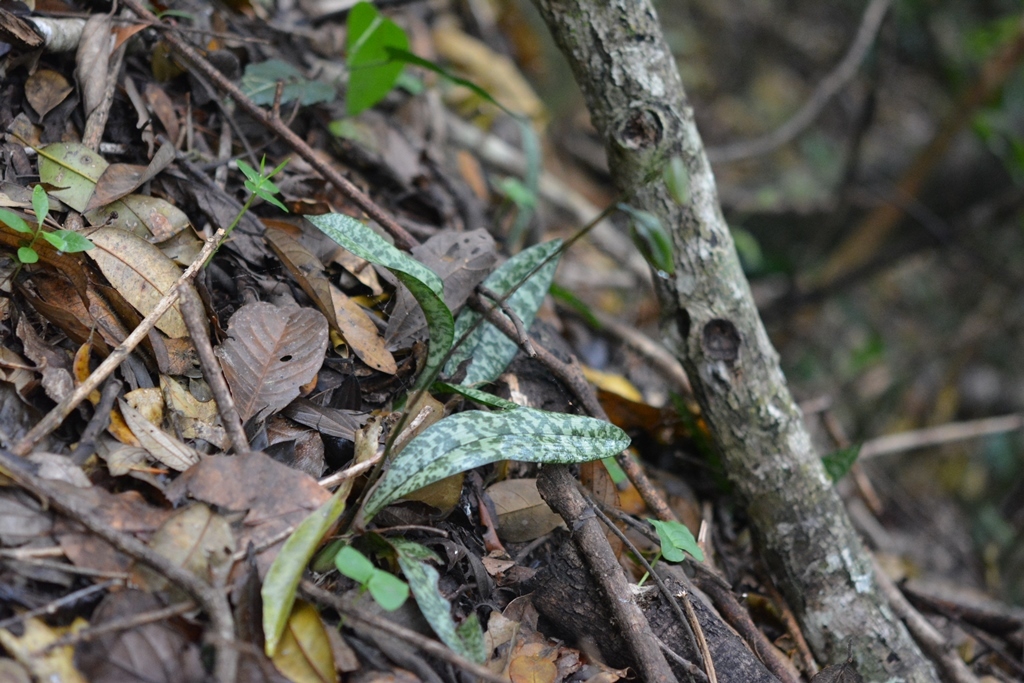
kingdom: Plantae
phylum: Tracheophyta
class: Liliopsida
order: Asparagales
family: Orchidaceae
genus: Eulophia
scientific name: Eulophia maculata
